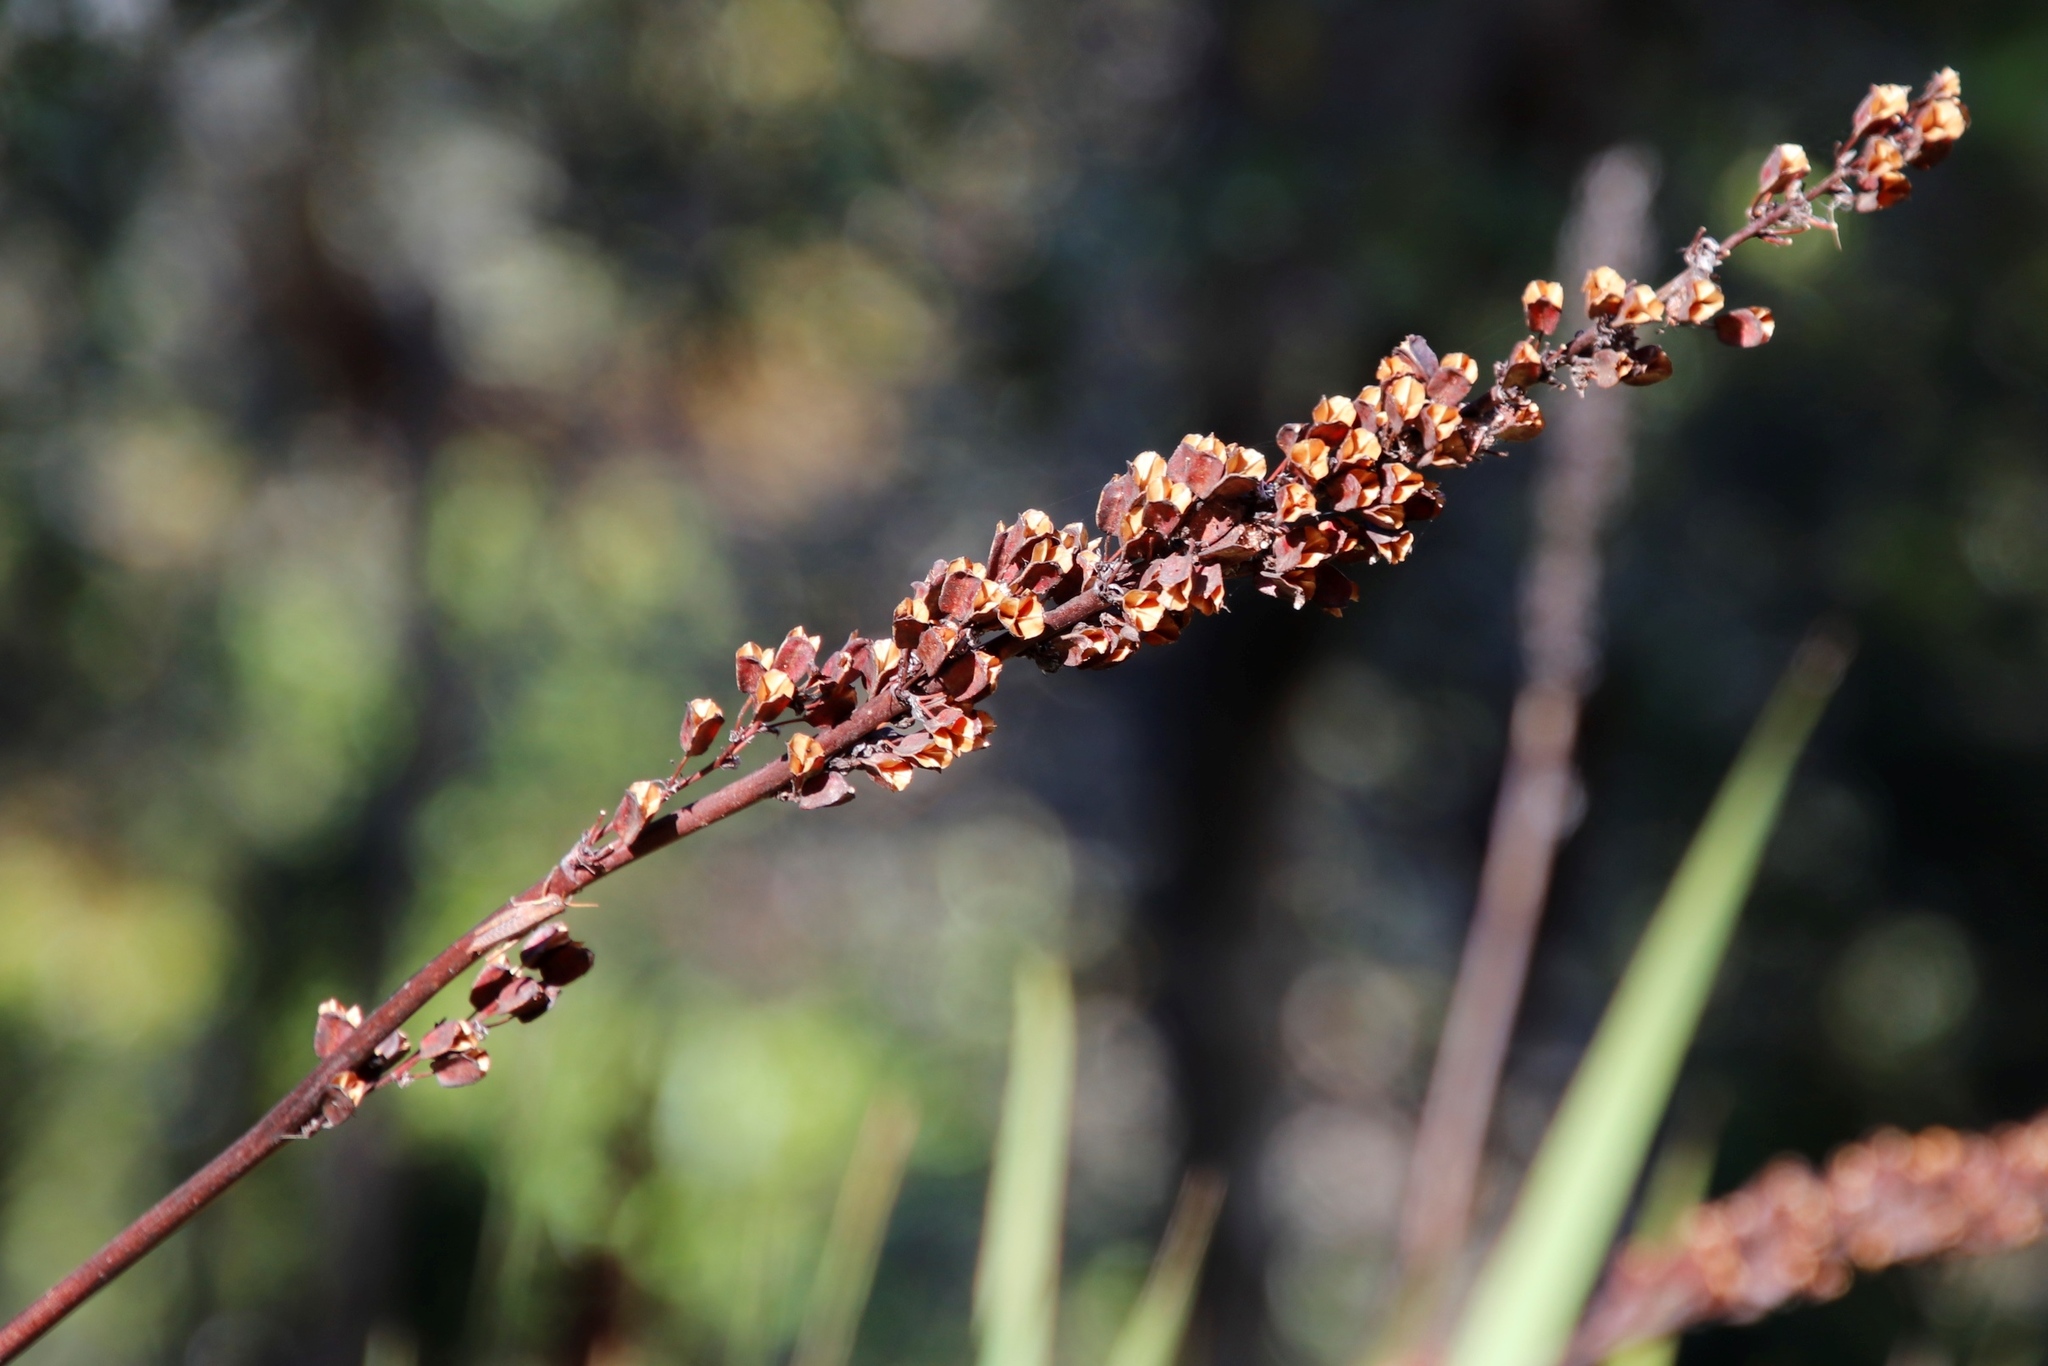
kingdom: Plantae
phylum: Tracheophyta
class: Liliopsida
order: Asparagales
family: Iridaceae
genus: Aristea
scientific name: Aristea capitata
